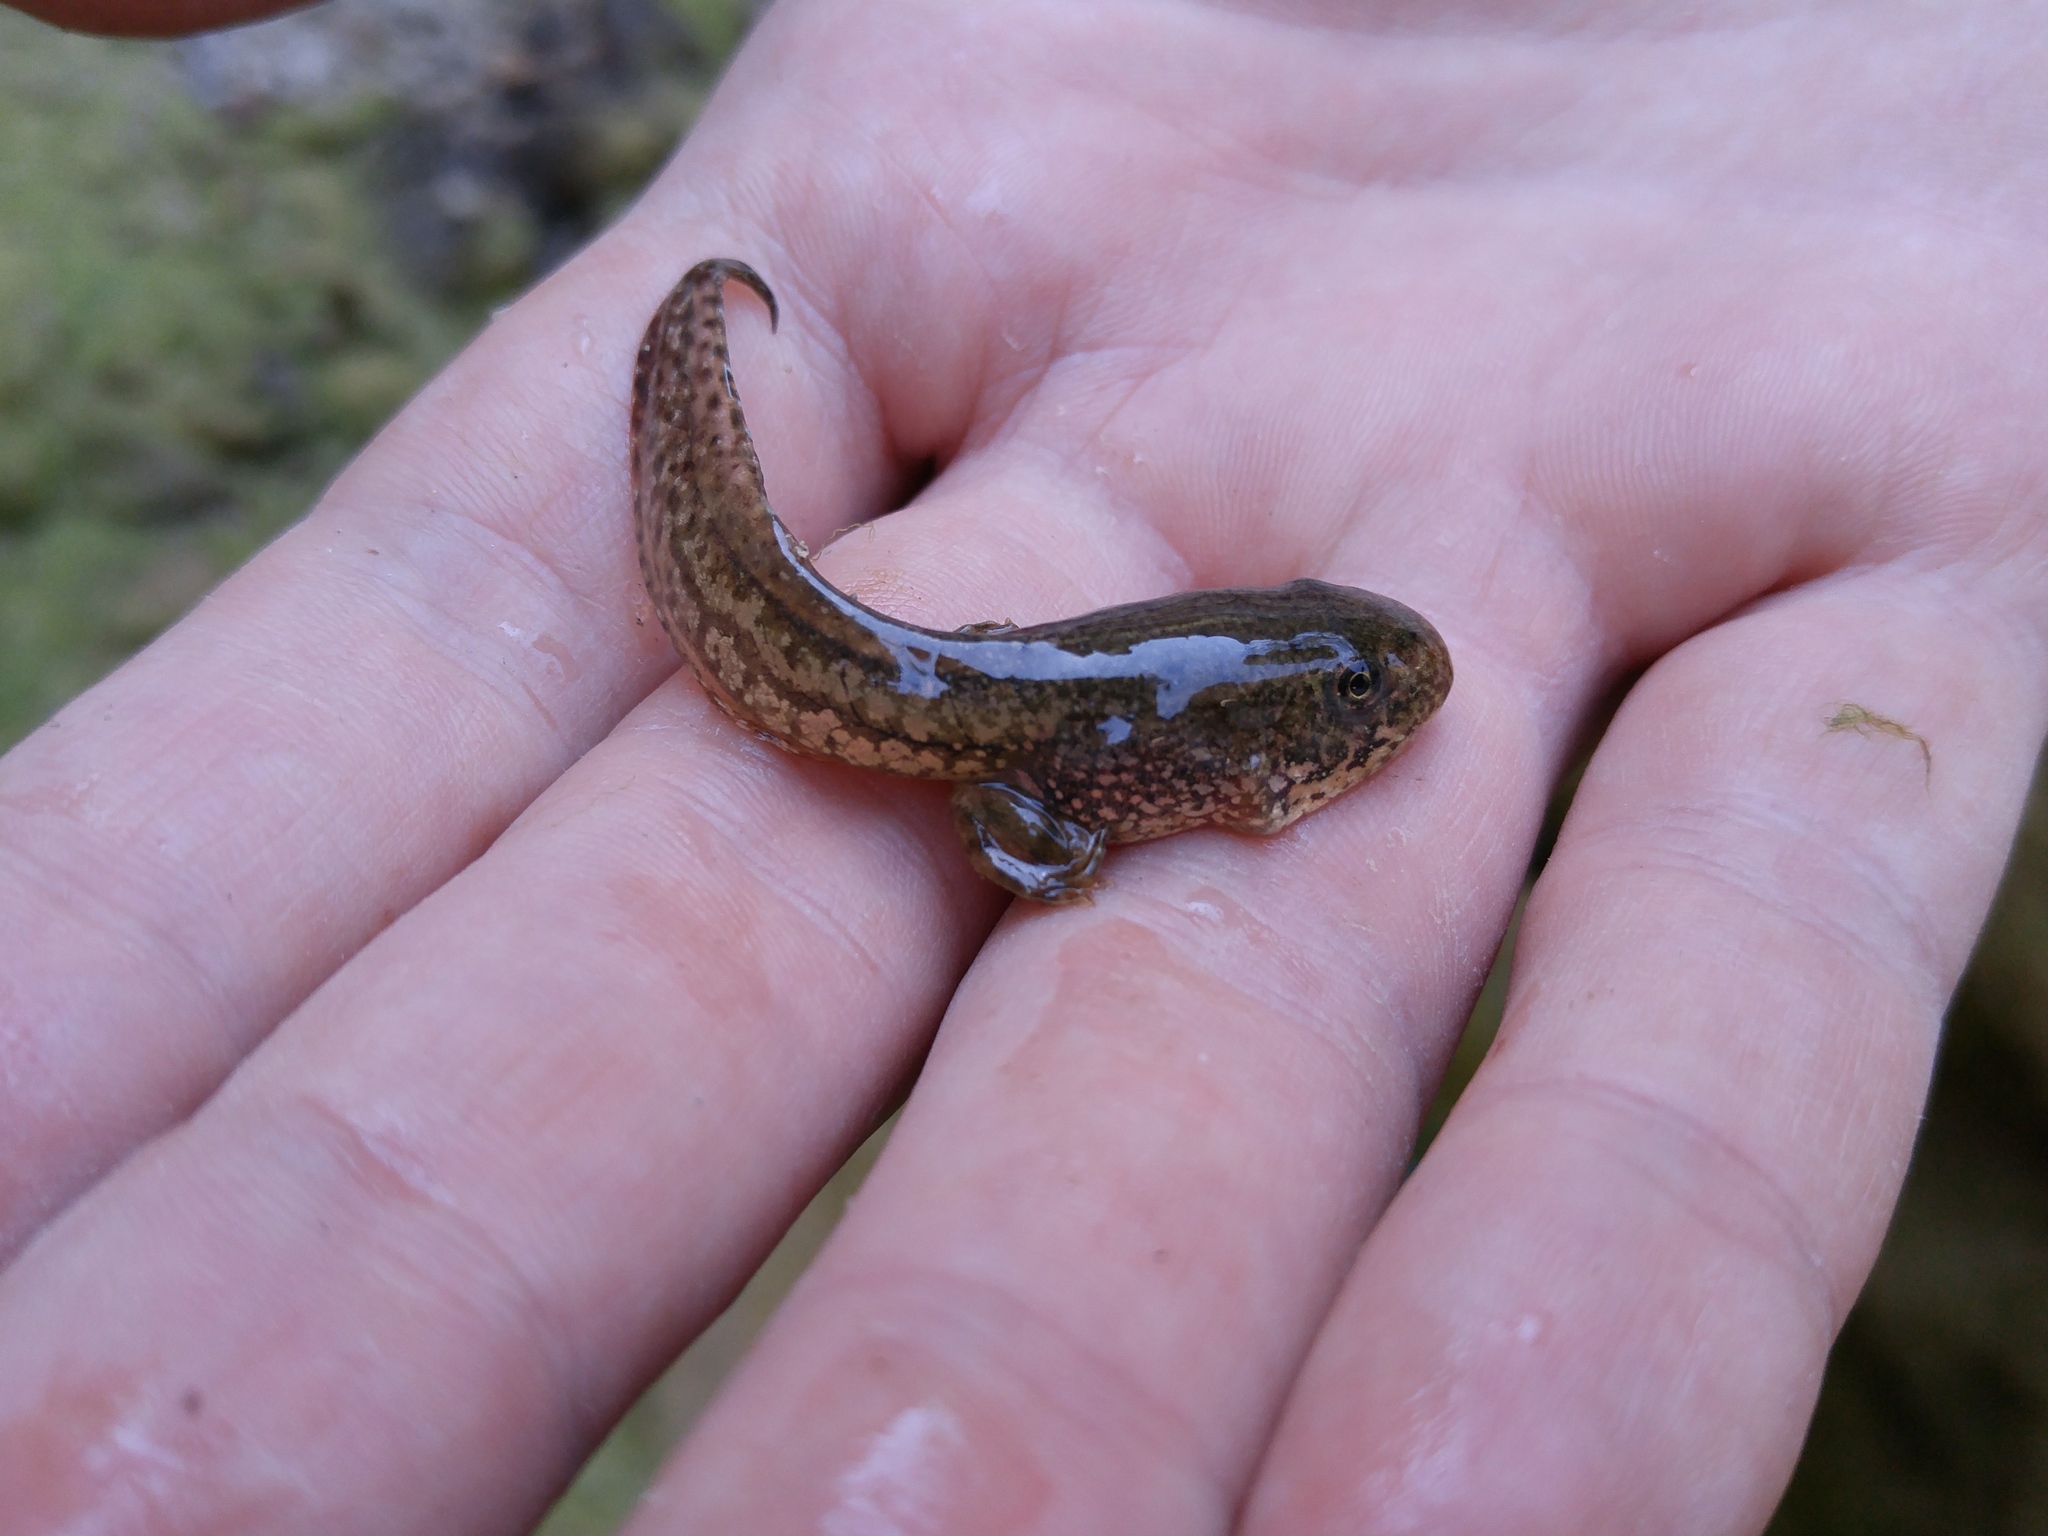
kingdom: Animalia
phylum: Chordata
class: Amphibia
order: Anura
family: Ranidae
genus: Pelophylax
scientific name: Pelophylax saharicus
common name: Sahara frog
